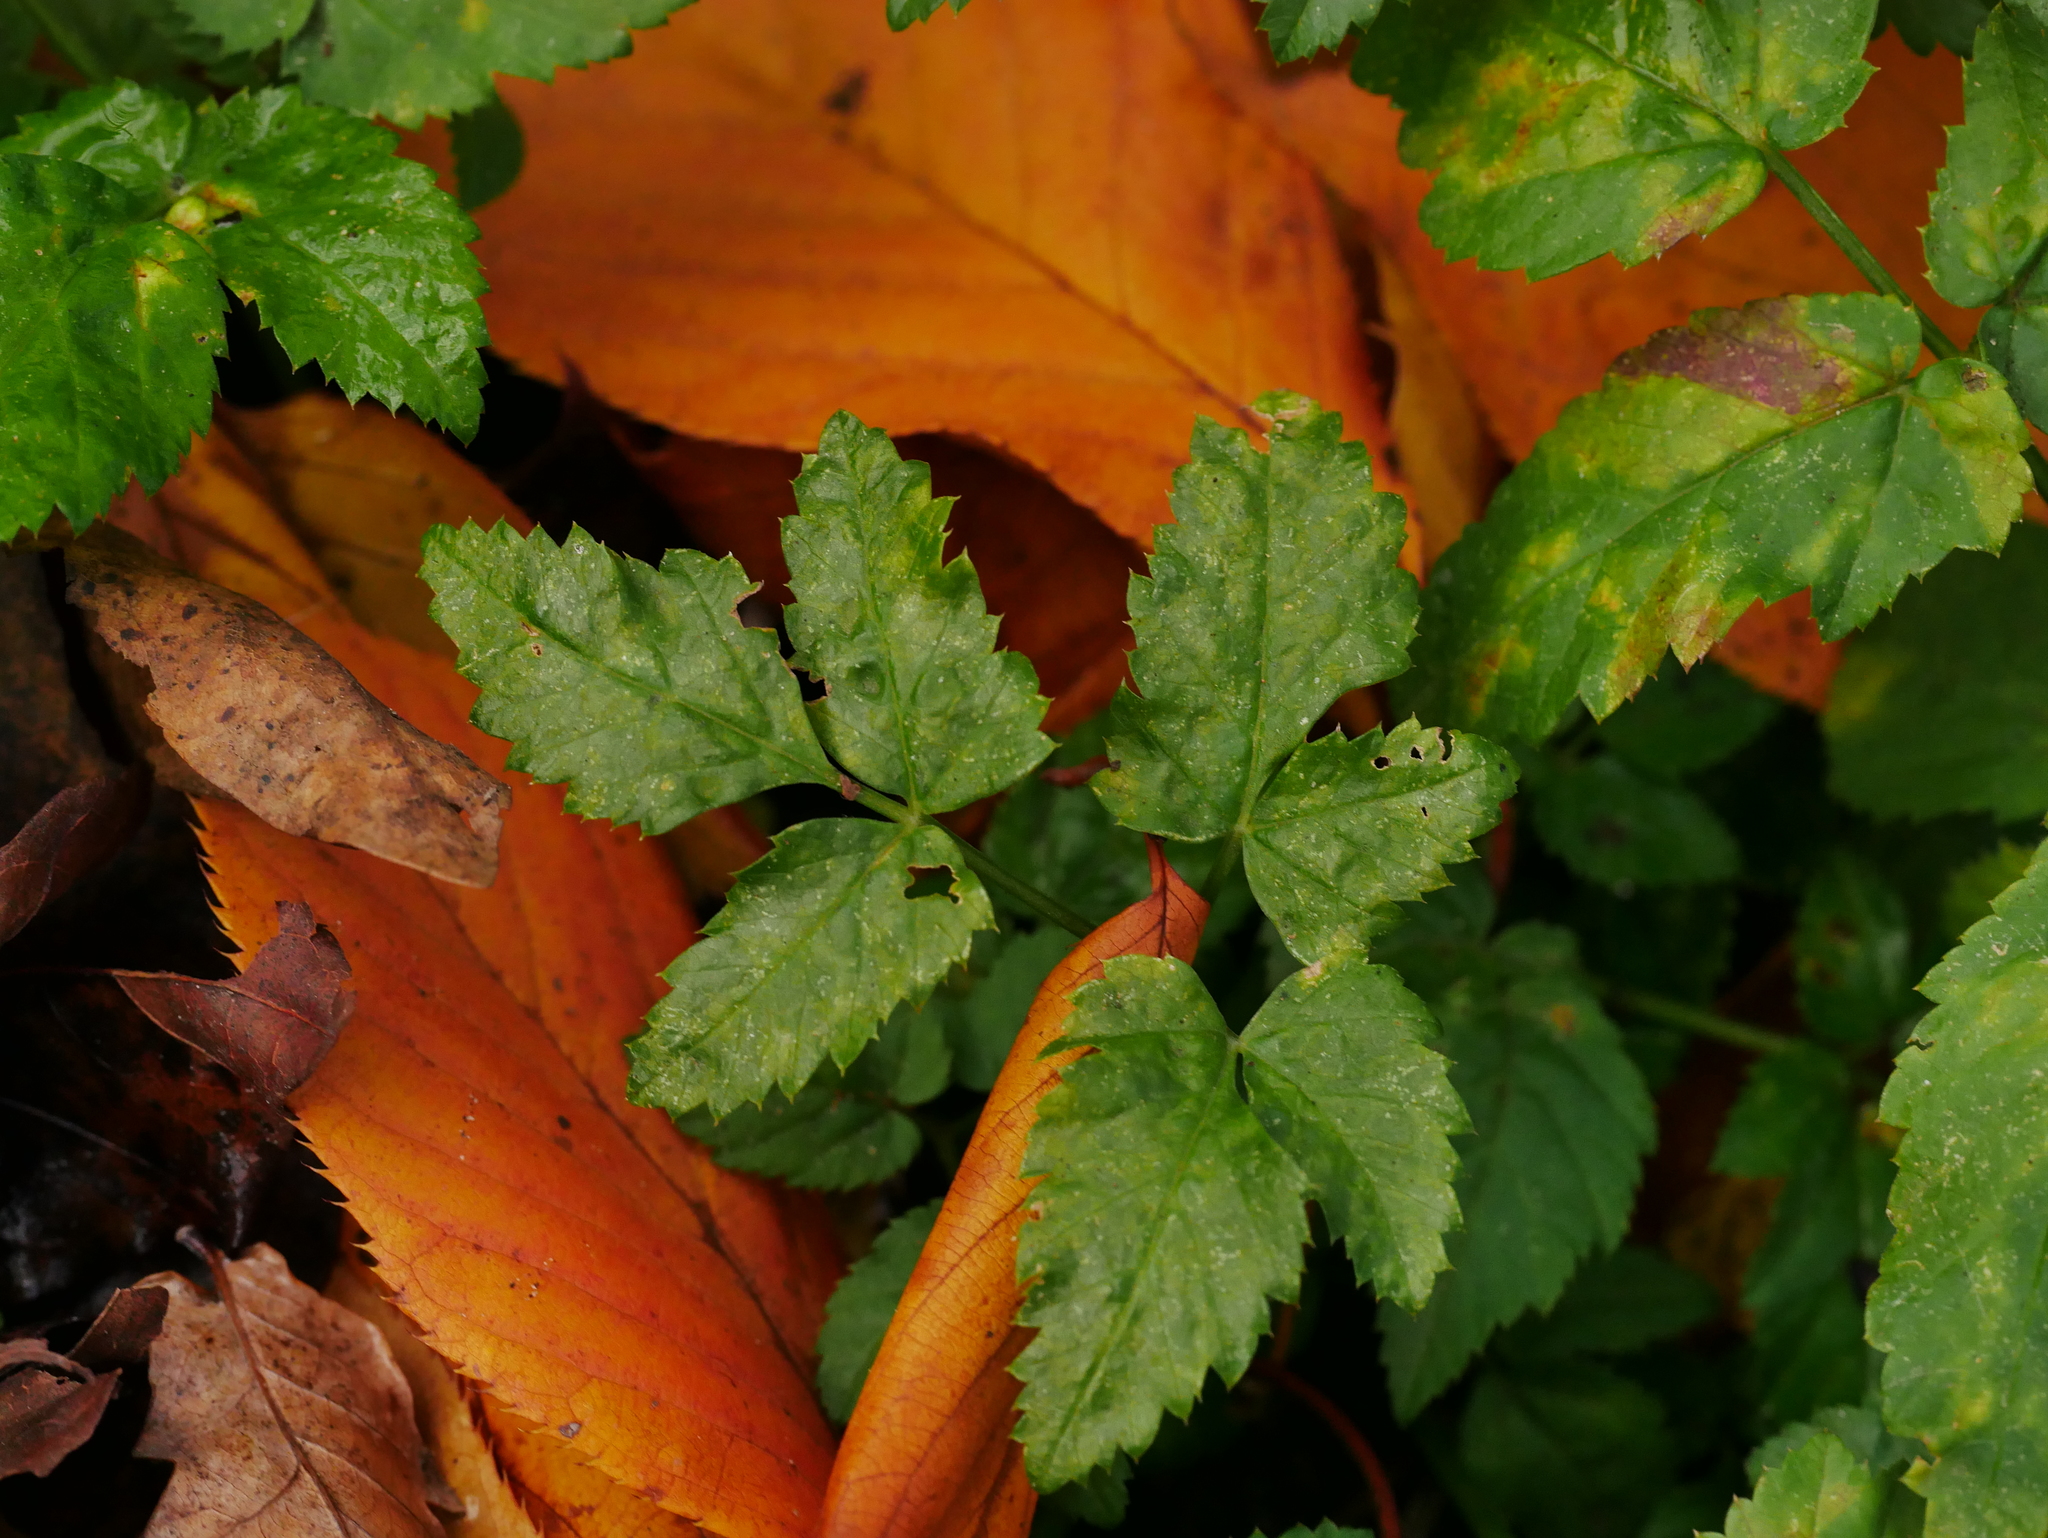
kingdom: Plantae
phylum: Tracheophyta
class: Magnoliopsida
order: Apiales
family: Apiaceae
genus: Aegopodium
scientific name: Aegopodium podagraria
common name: Ground-elder
